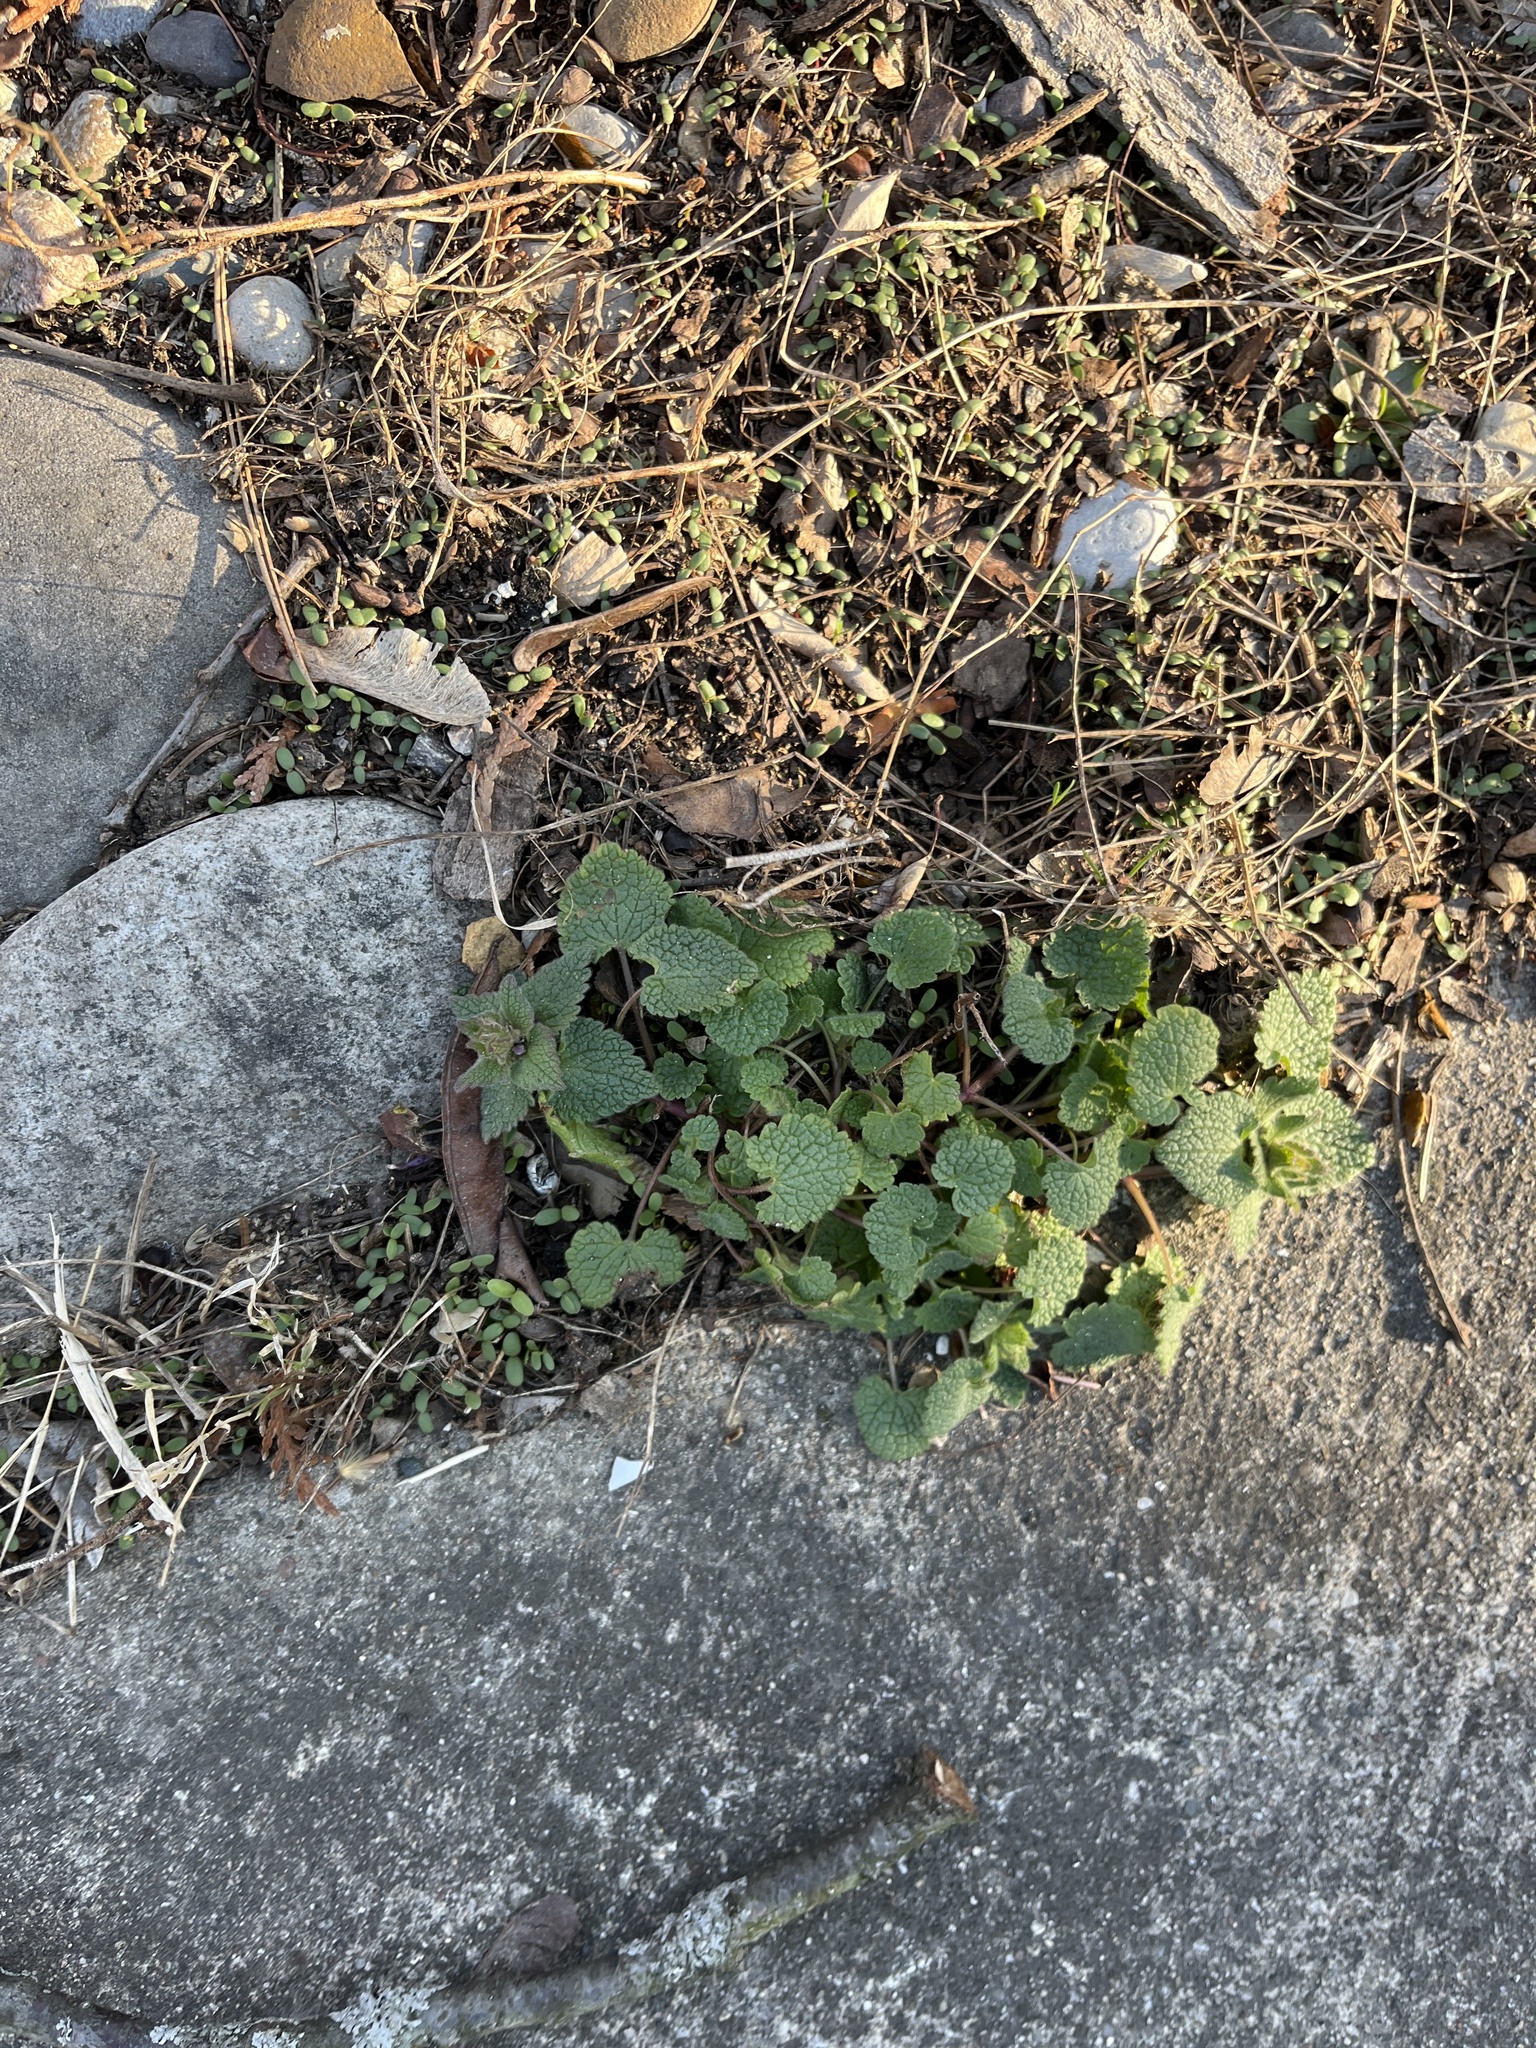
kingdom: Plantae
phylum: Tracheophyta
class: Magnoliopsida
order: Lamiales
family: Lamiaceae
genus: Lamium
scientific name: Lamium purpureum
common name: Red dead-nettle
